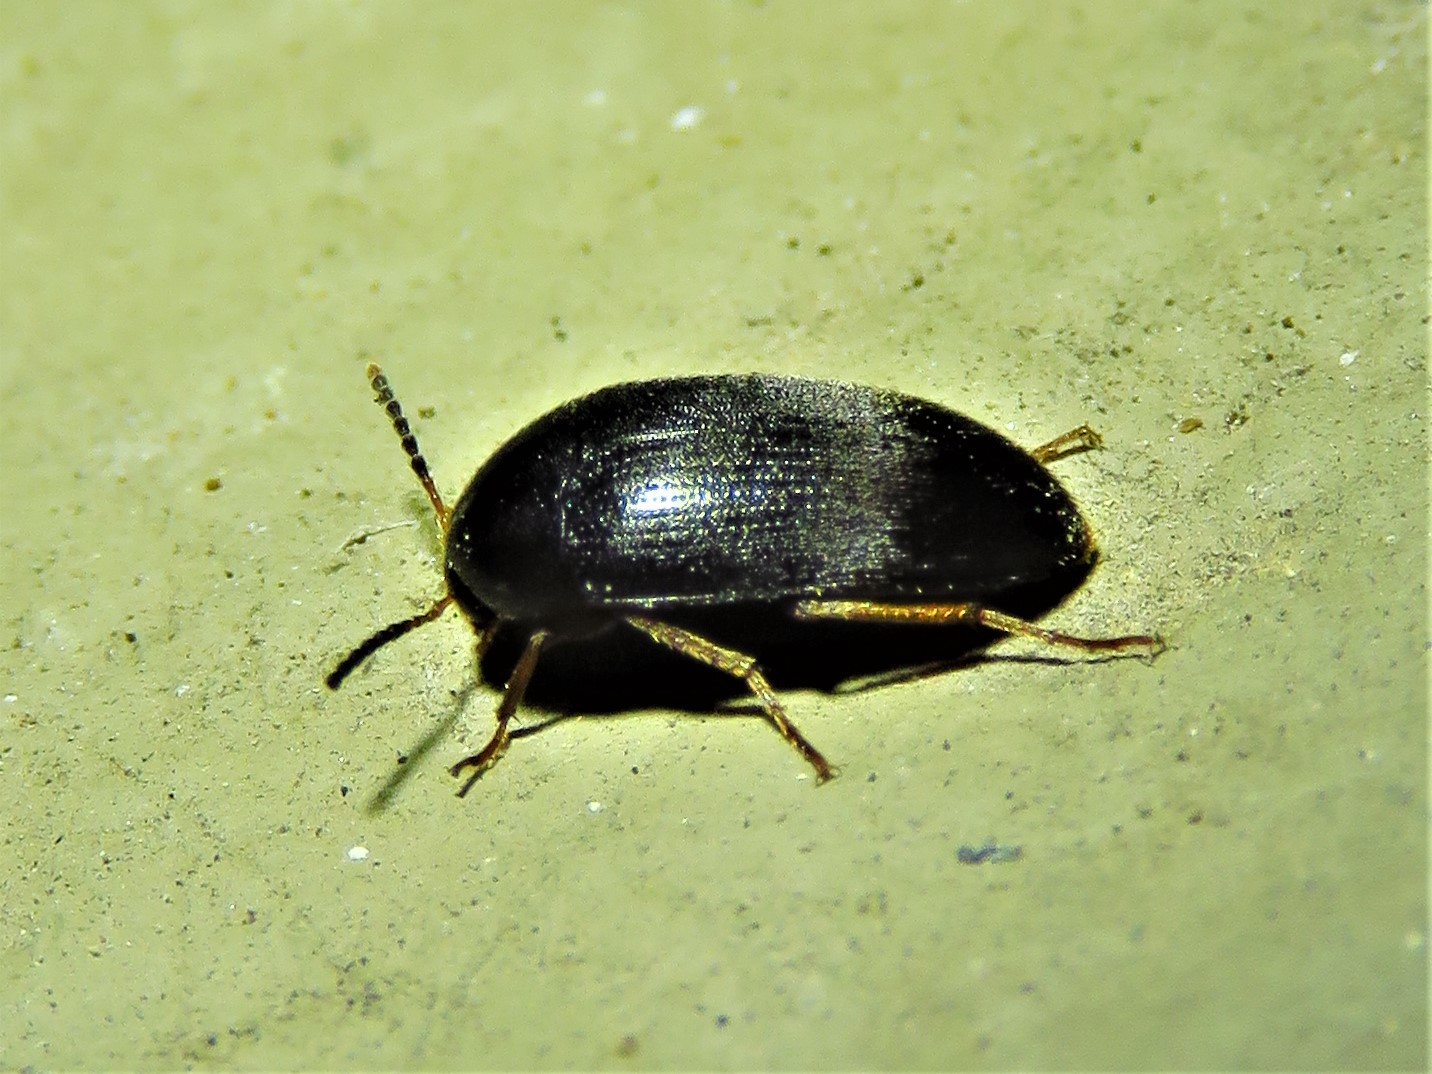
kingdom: Animalia
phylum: Arthropoda
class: Insecta
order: Coleoptera
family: Tetratomidae
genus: Eustrophopsis
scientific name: Eustrophopsis bicolor
